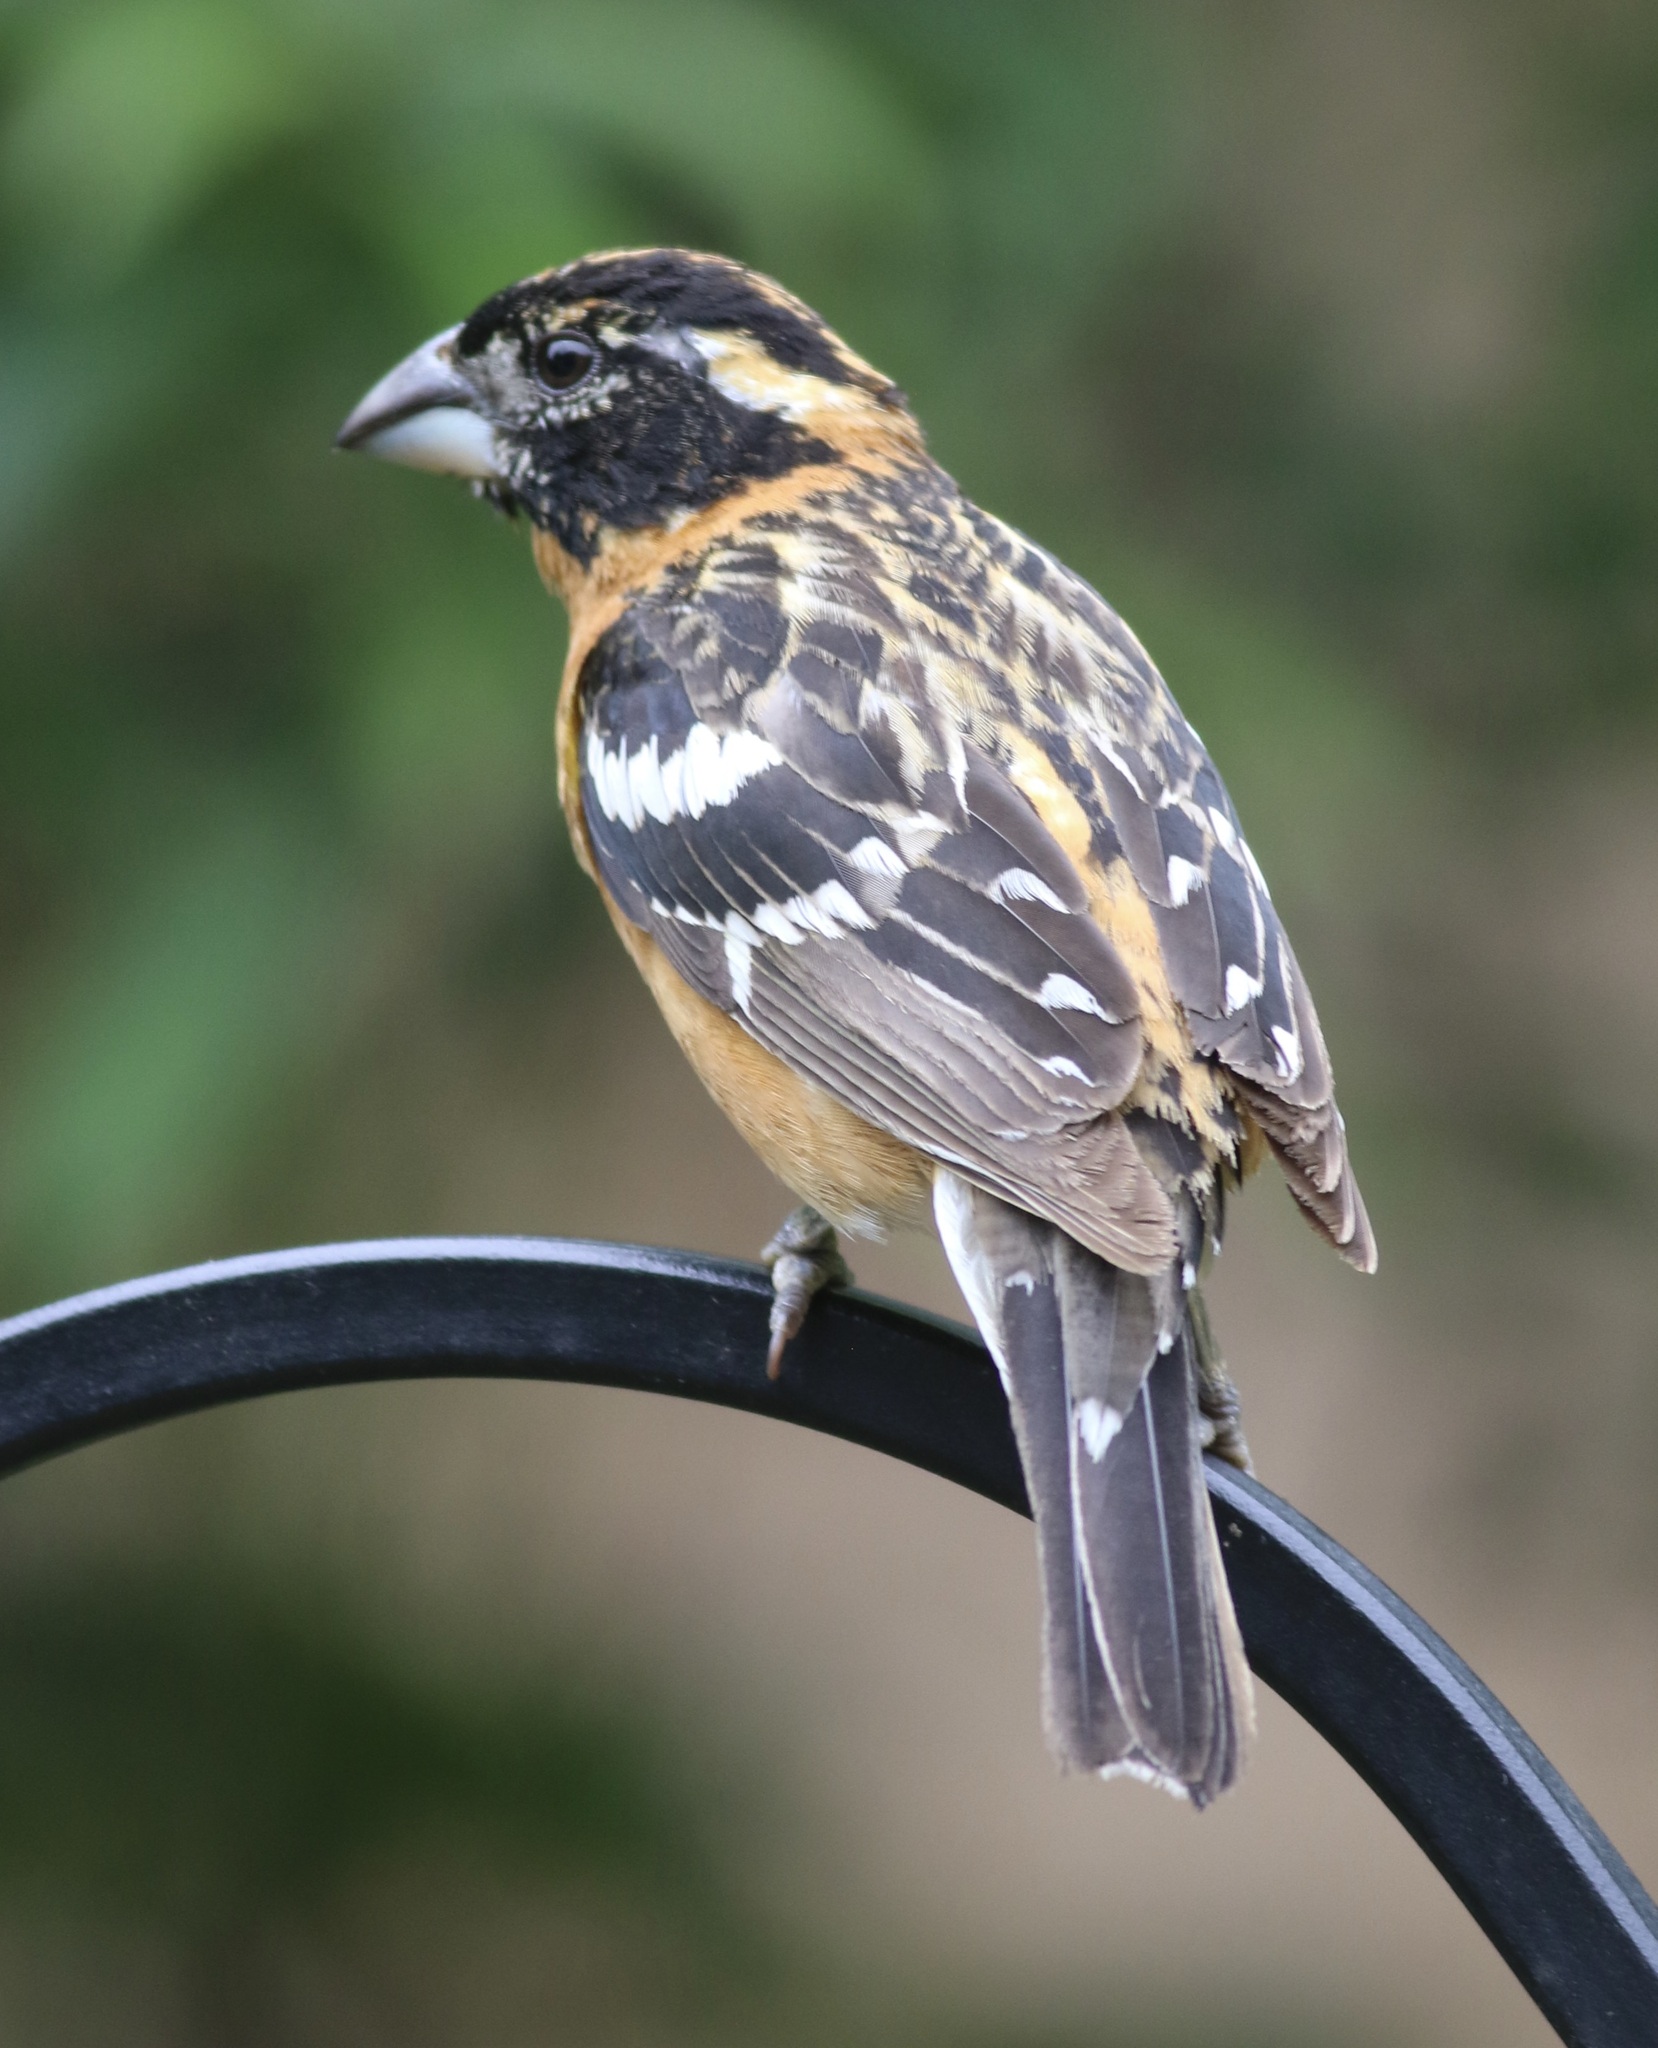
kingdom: Animalia
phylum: Chordata
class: Aves
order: Passeriformes
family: Cardinalidae
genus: Pheucticus
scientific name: Pheucticus melanocephalus
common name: Black-headed grosbeak
